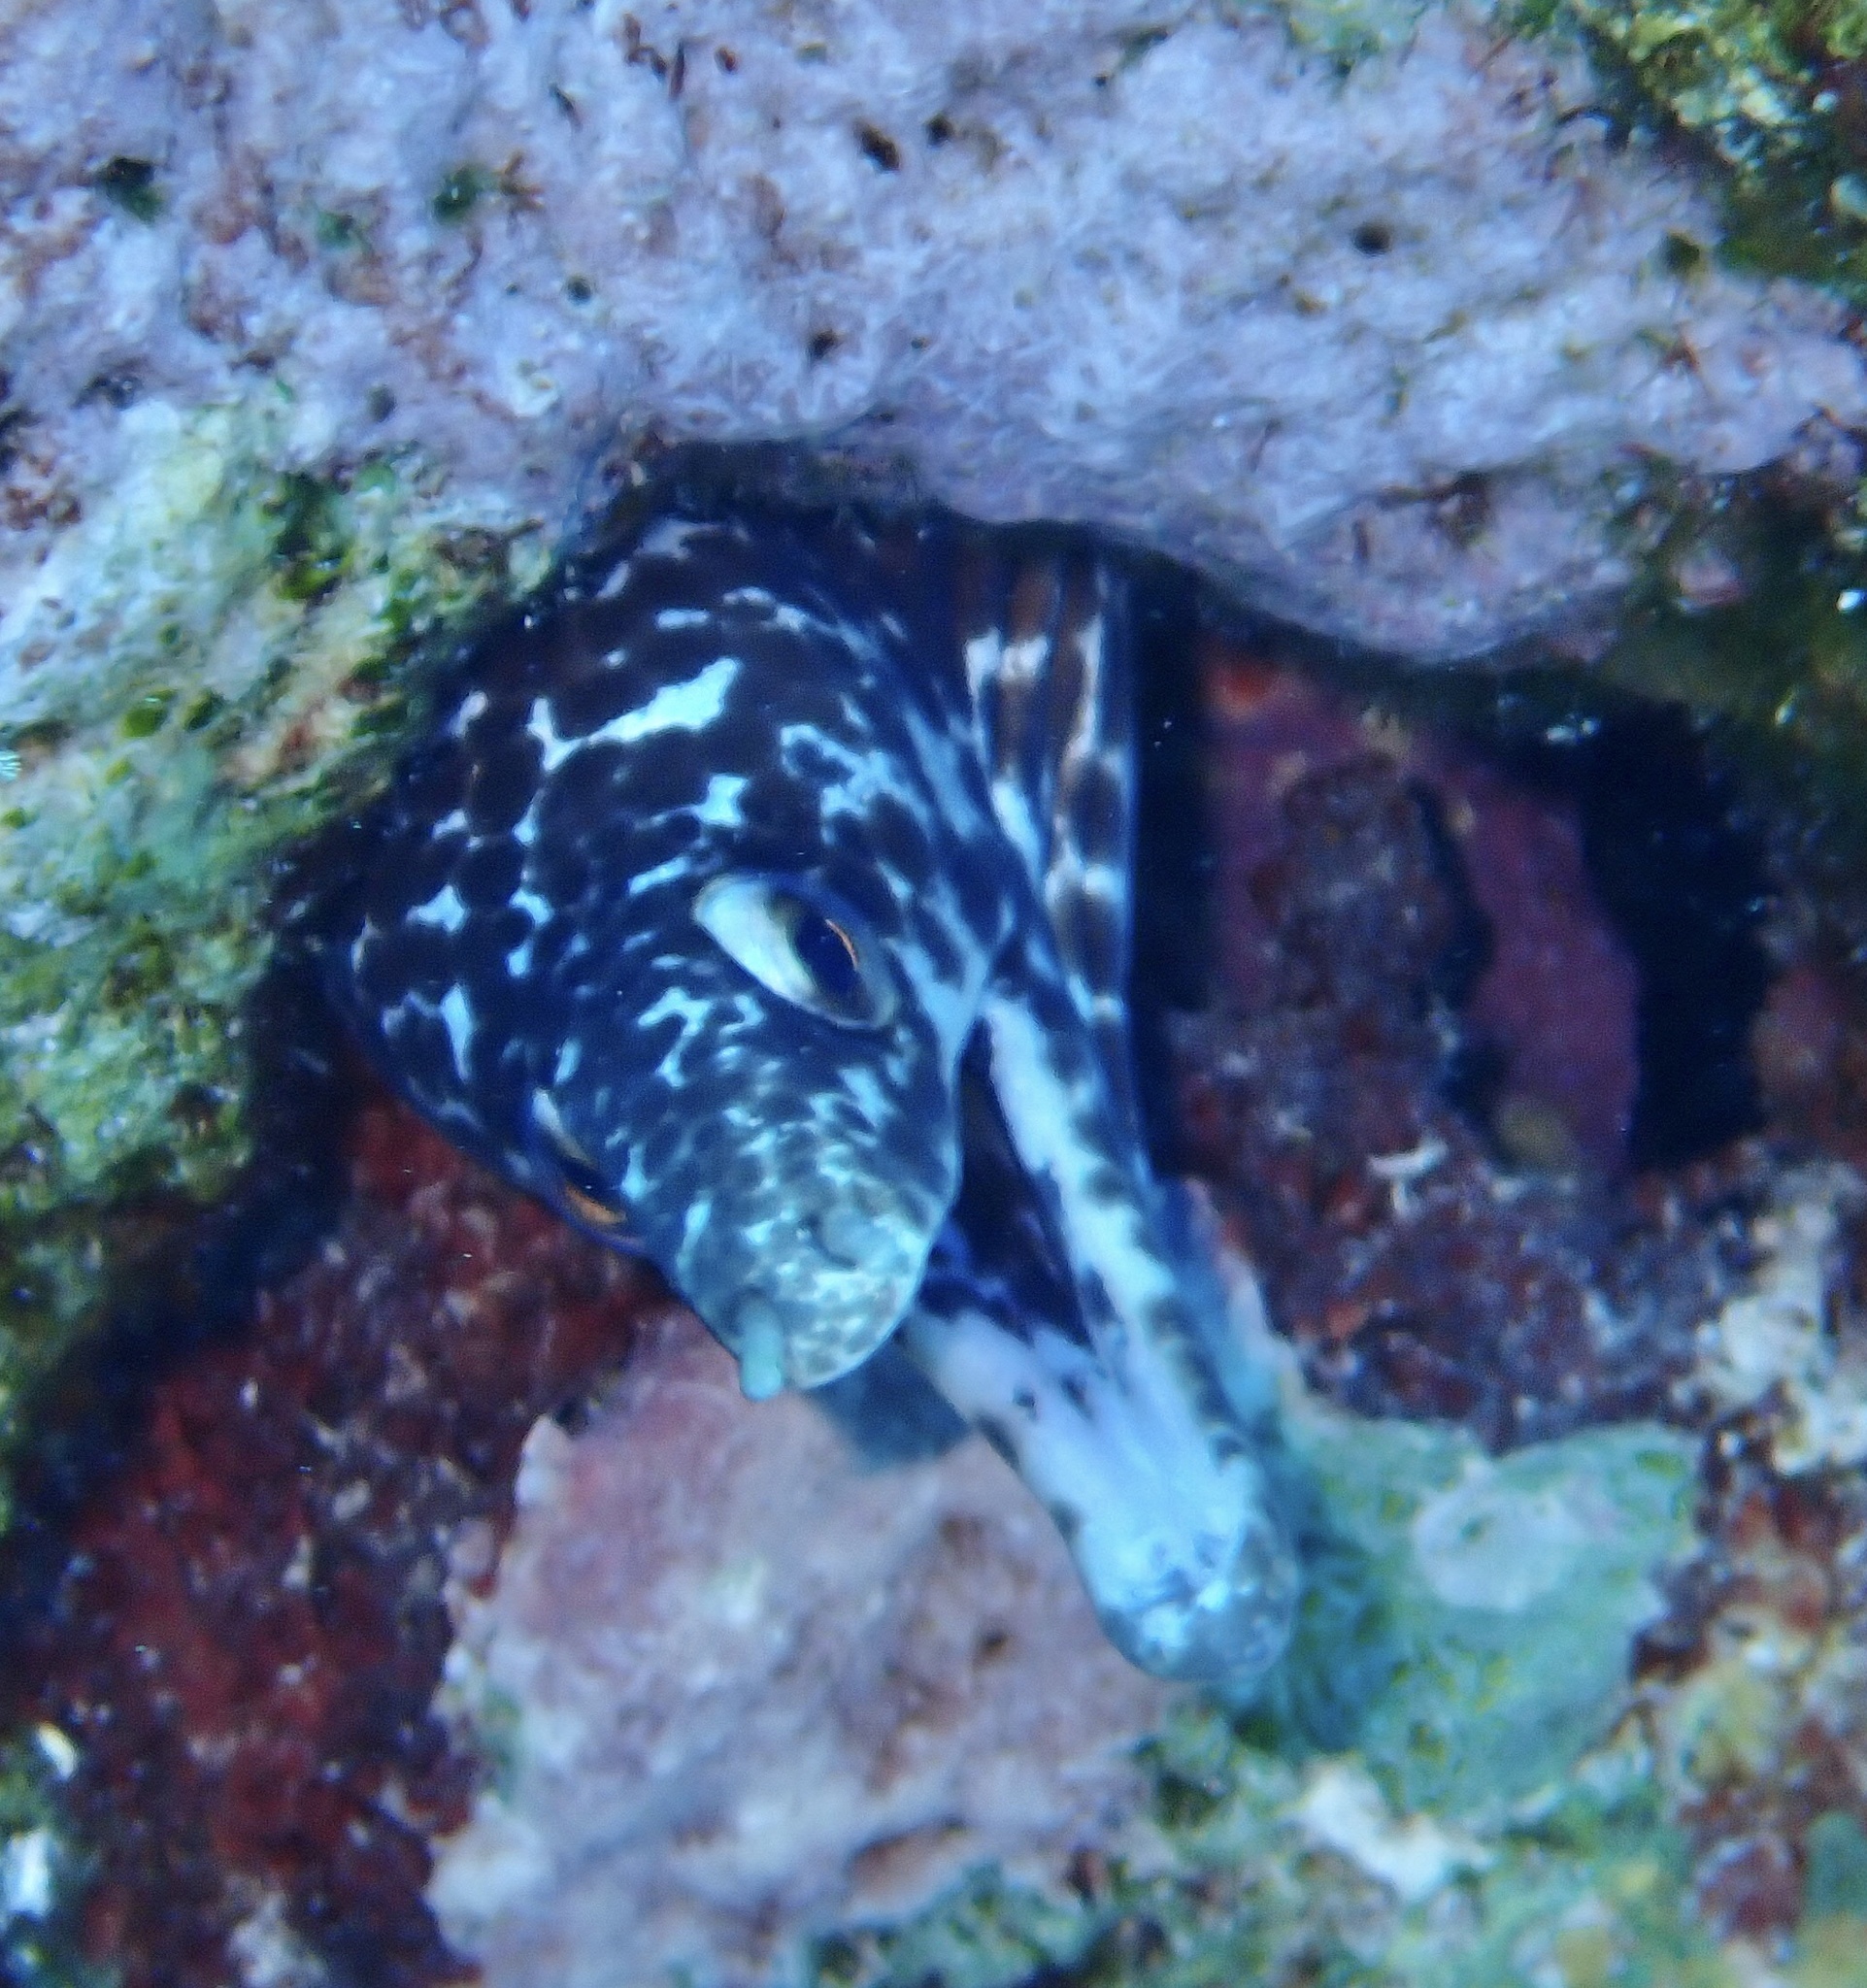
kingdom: Animalia
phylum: Chordata
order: Anguilliformes
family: Muraenidae
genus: Gymnothorax
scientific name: Gymnothorax moringa
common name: Spotted moray
